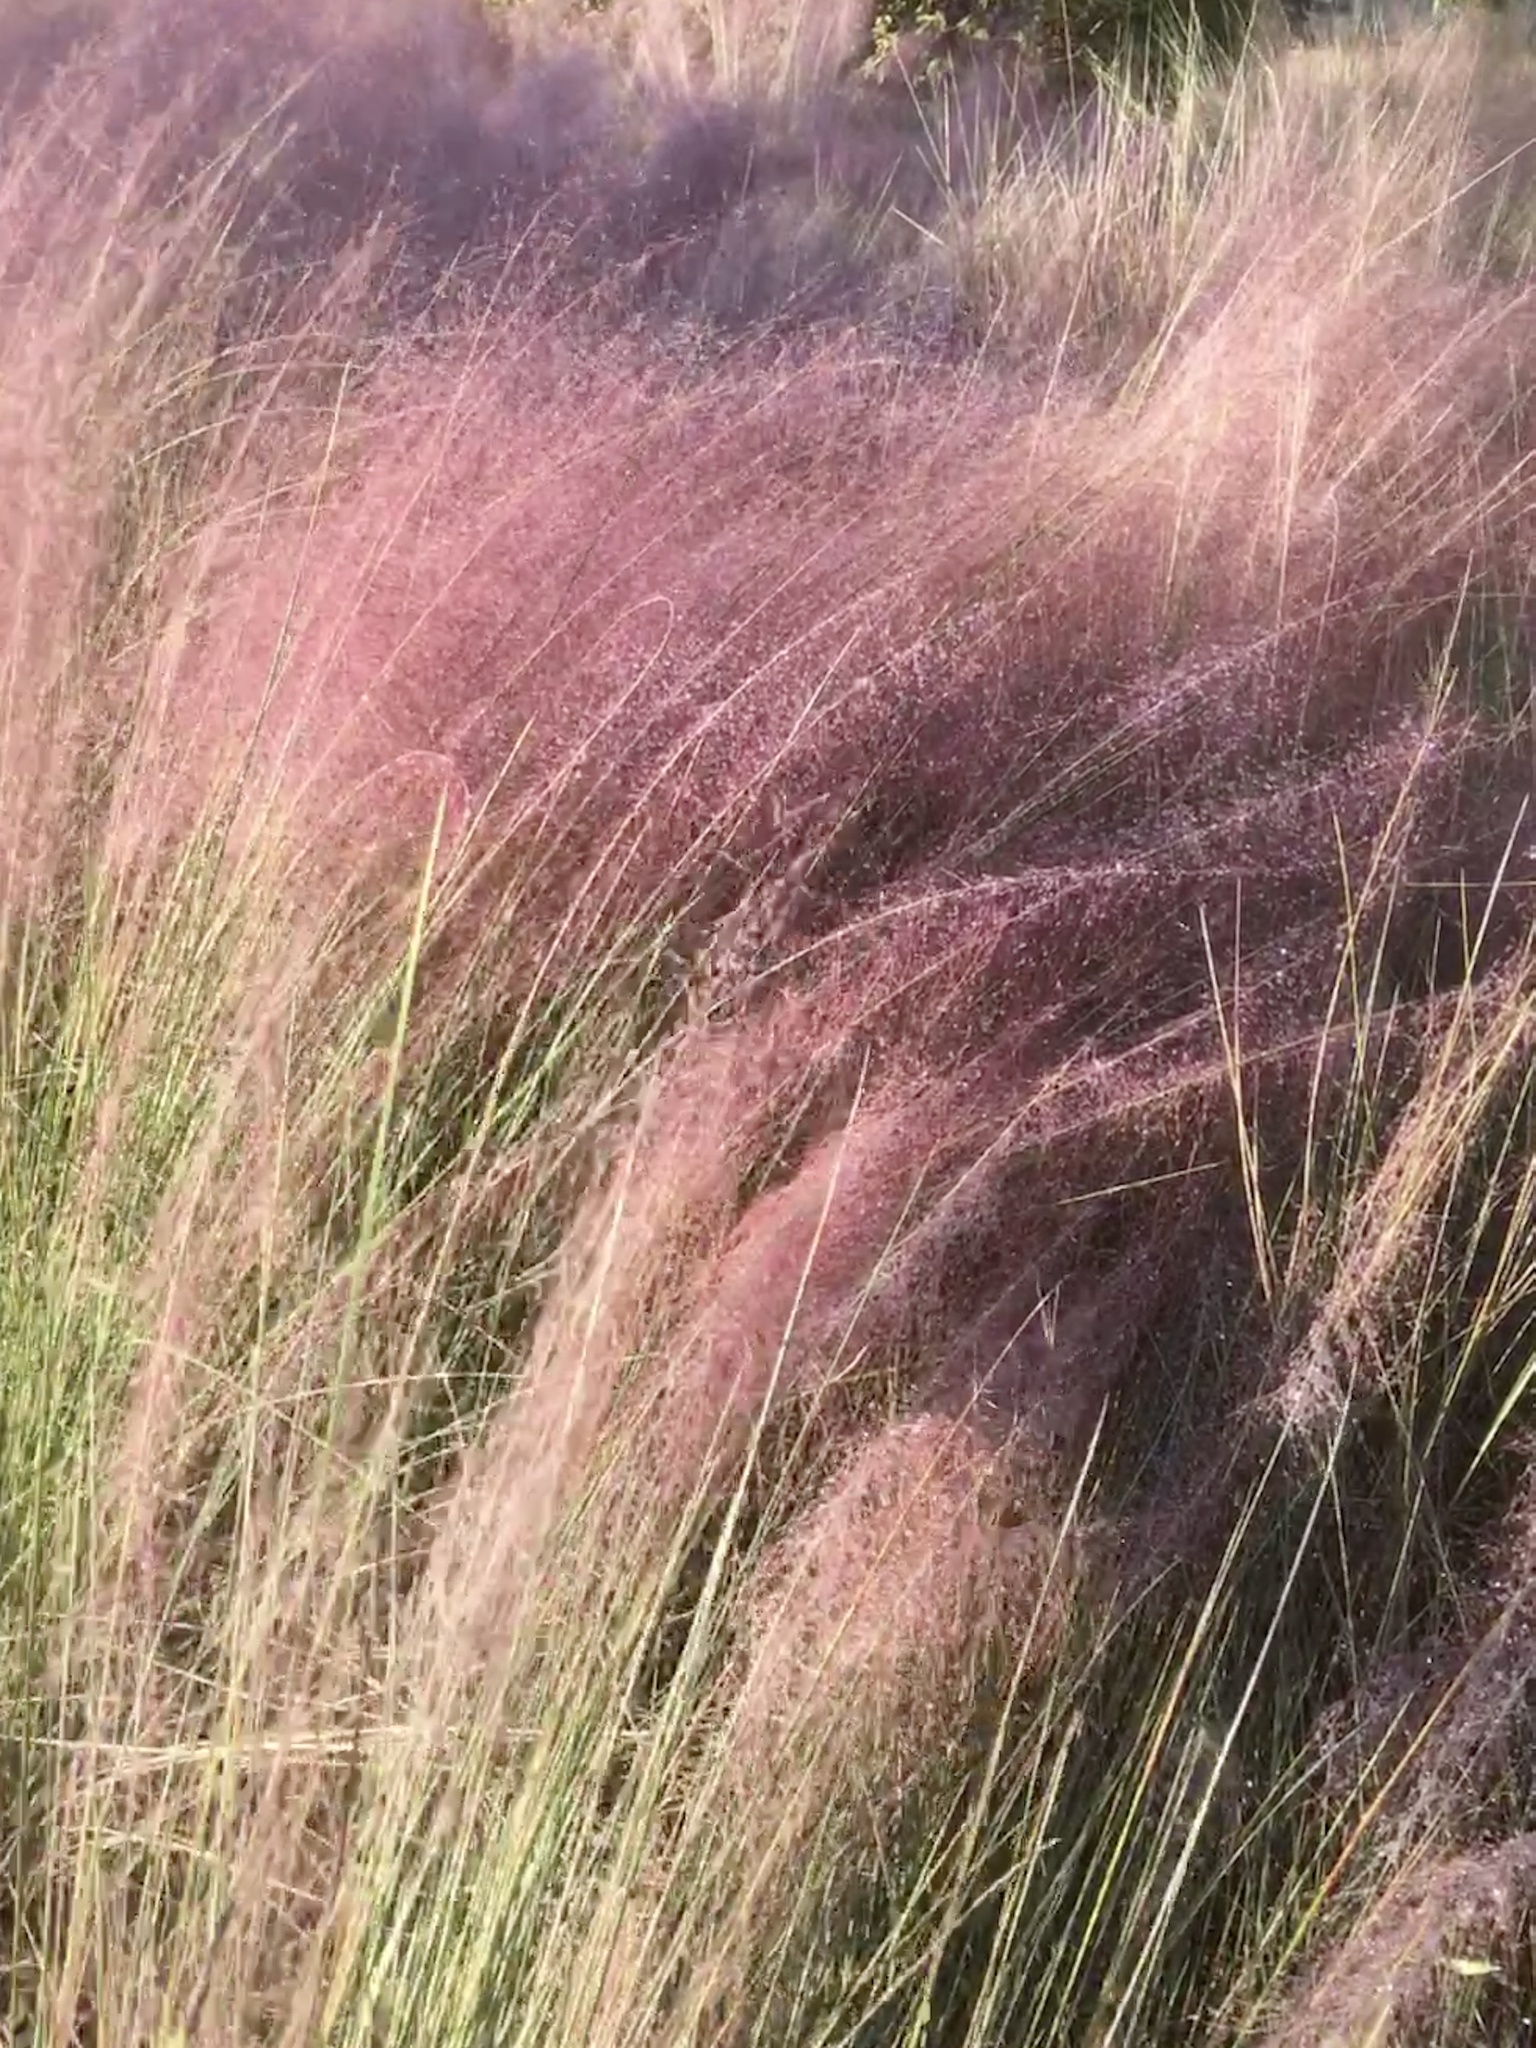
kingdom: Plantae
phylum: Tracheophyta
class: Liliopsida
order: Poales
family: Poaceae
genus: Muhlenbergia
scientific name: Muhlenbergia capillaris
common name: Purple grass
